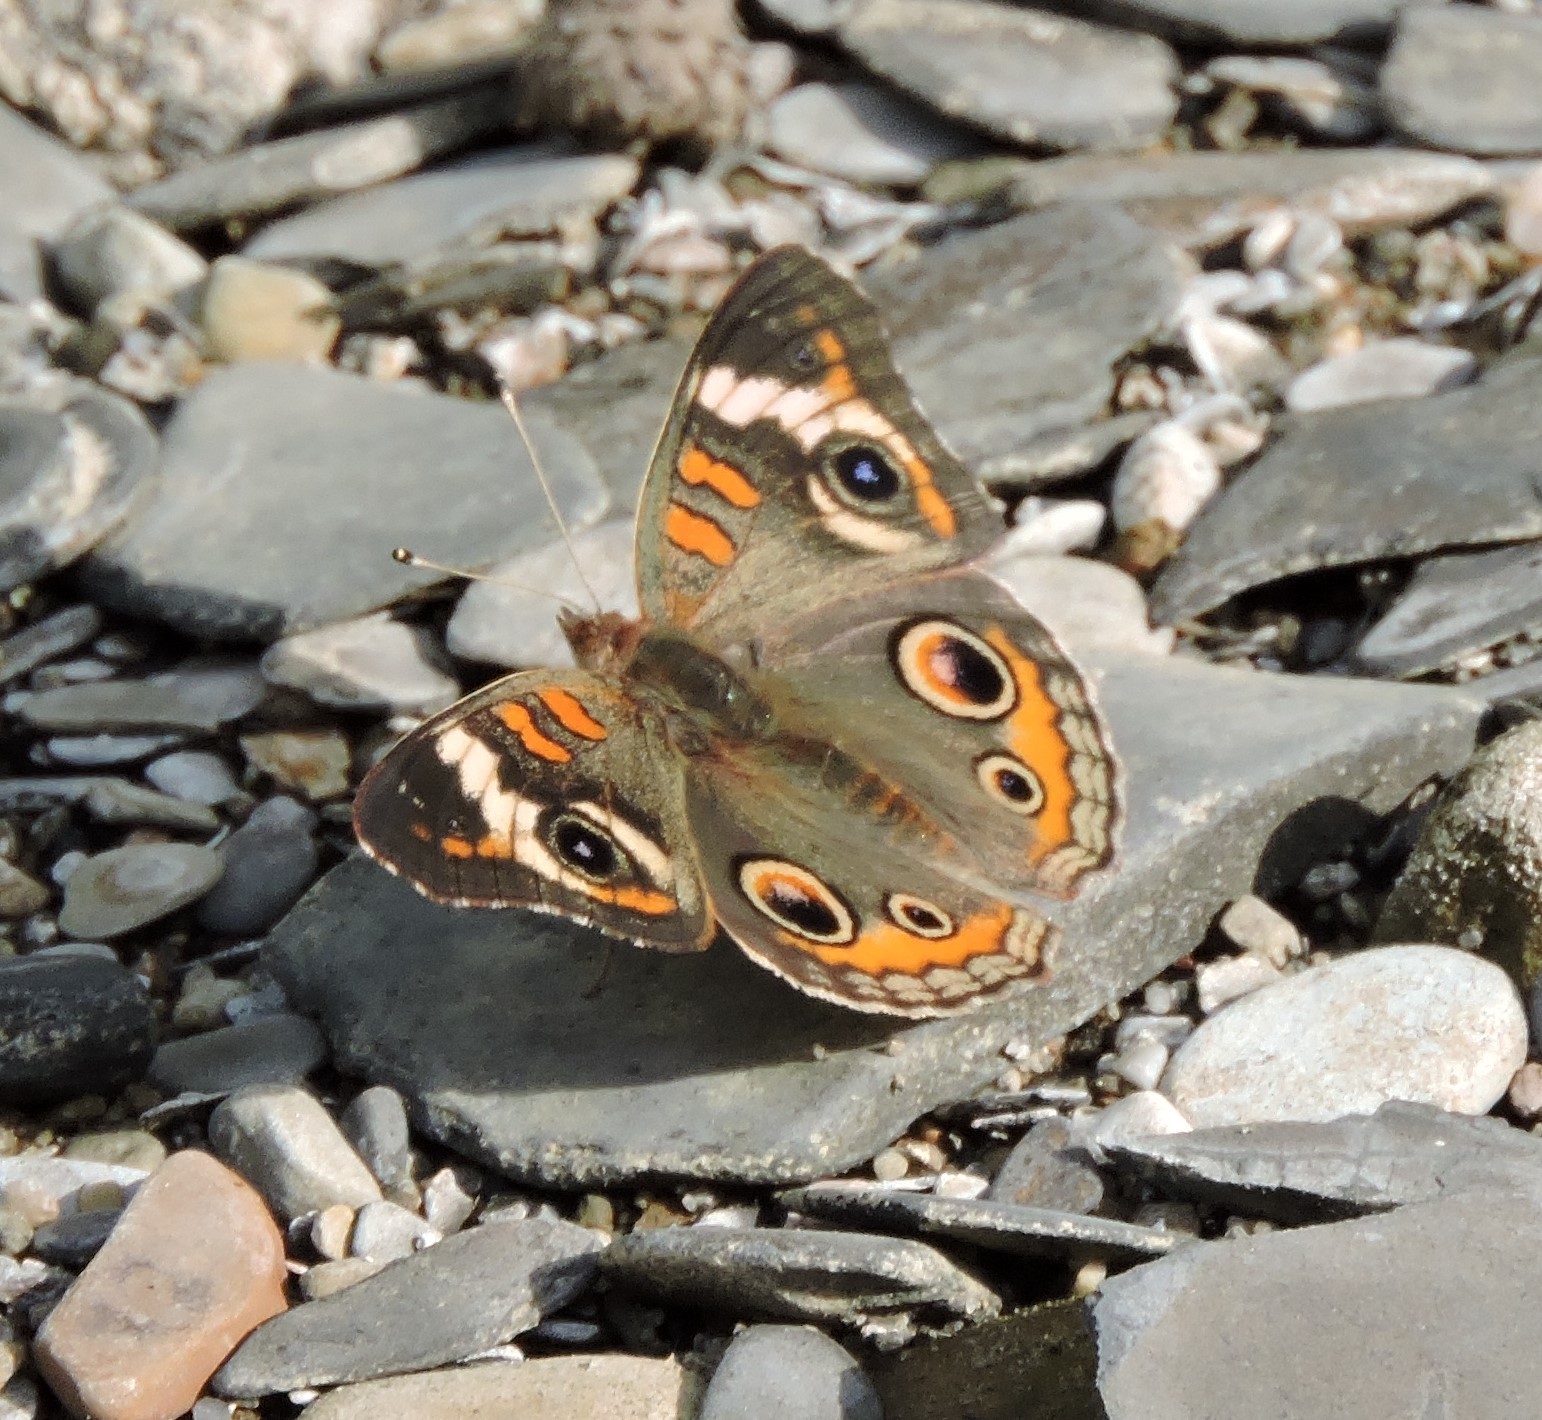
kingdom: Animalia
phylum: Arthropoda
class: Insecta
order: Lepidoptera
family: Nymphalidae
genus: Junonia
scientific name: Junonia coenia
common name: Common buckeye
